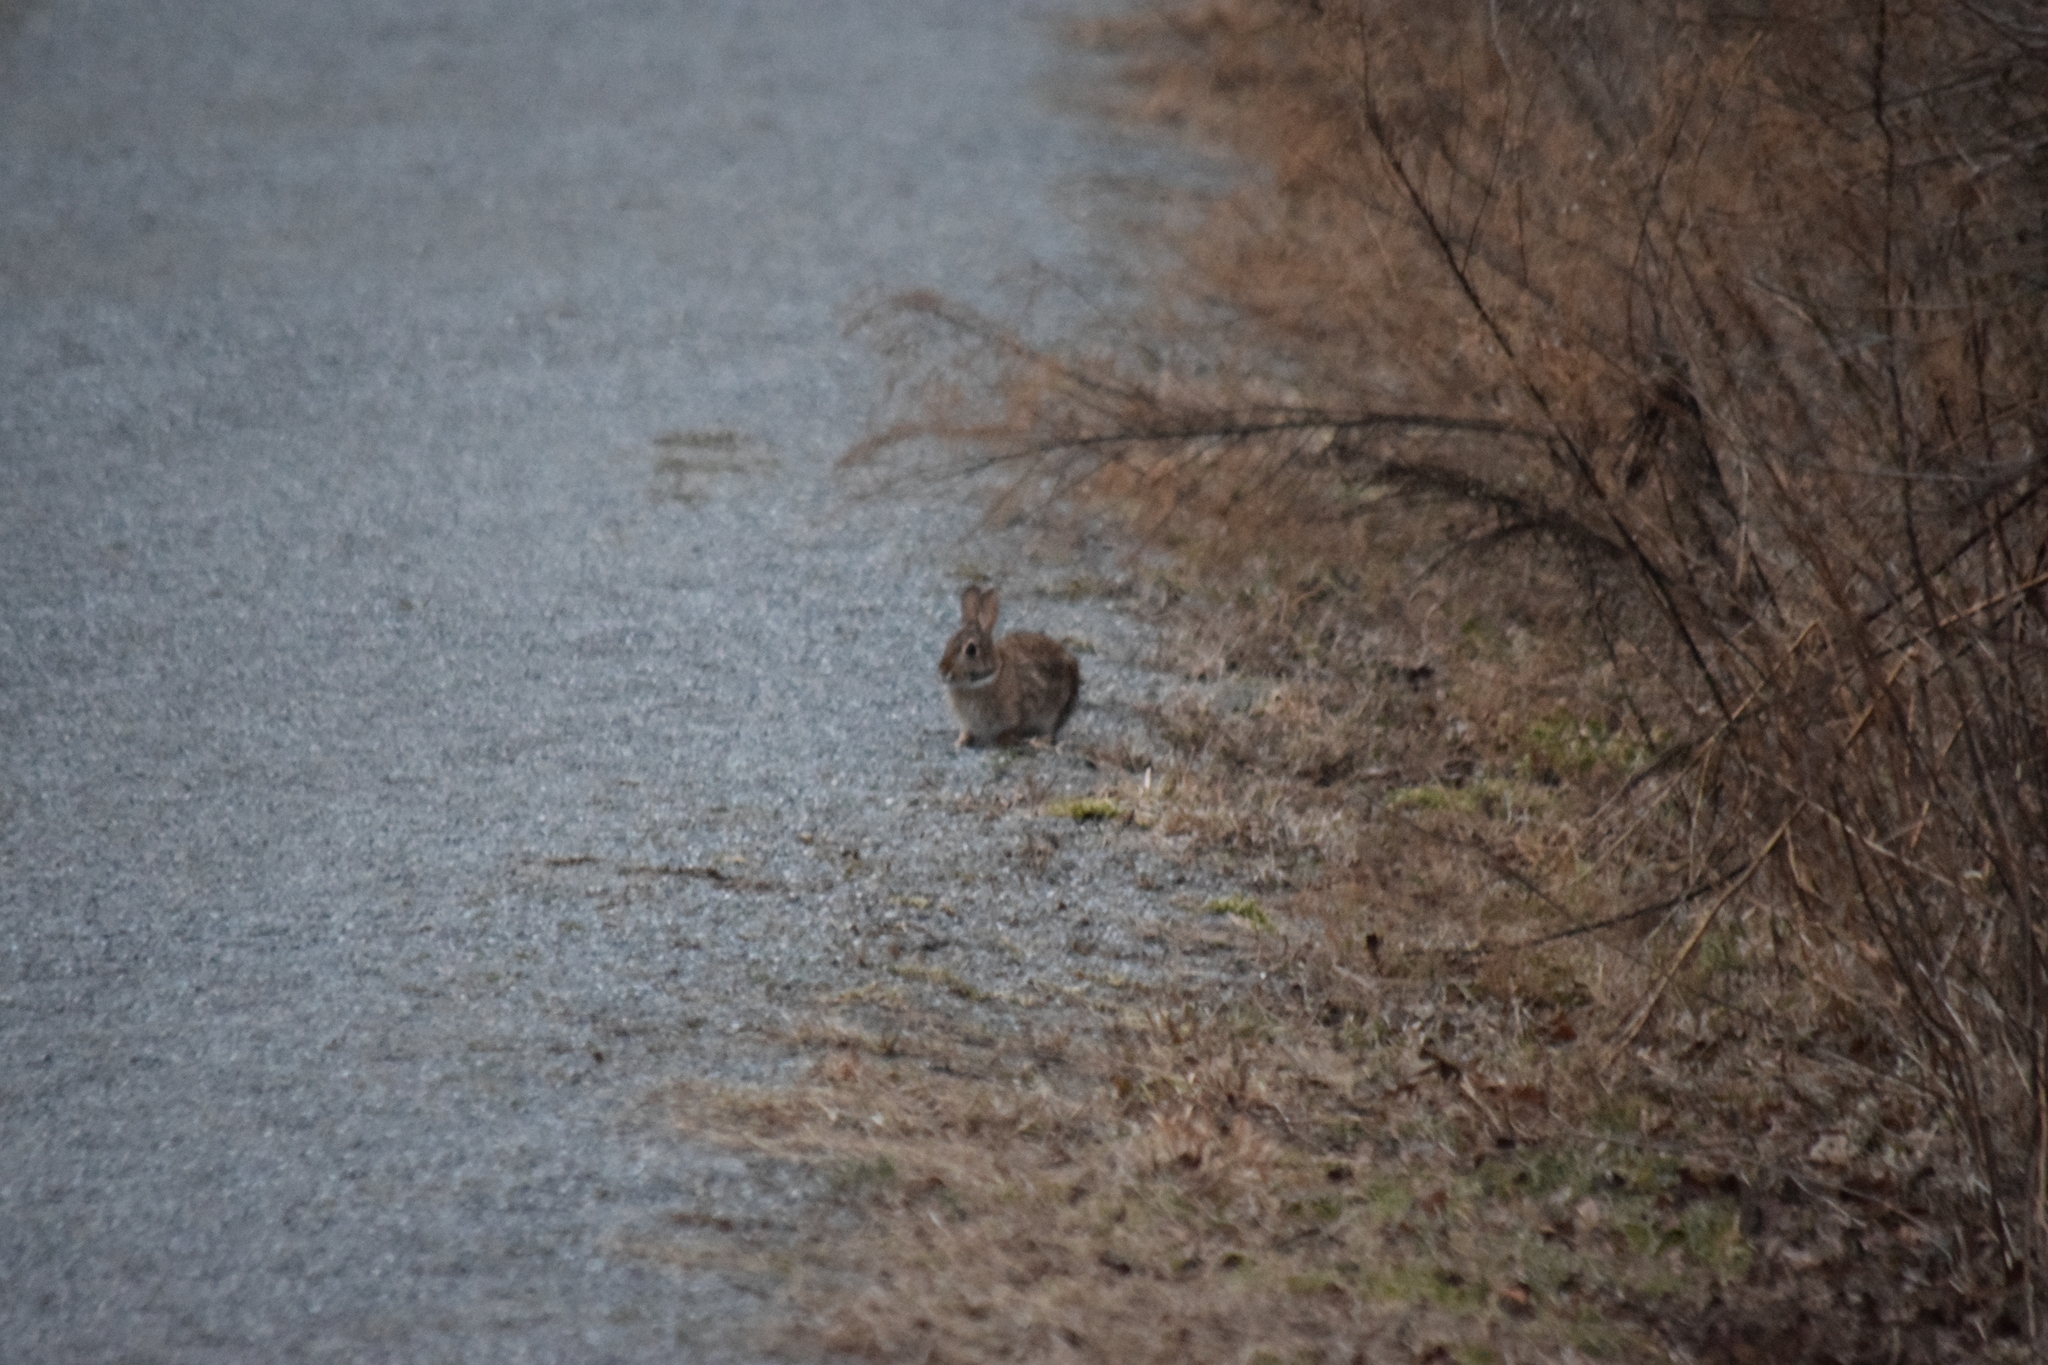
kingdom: Animalia
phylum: Chordata
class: Mammalia
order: Lagomorpha
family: Leporidae
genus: Sylvilagus
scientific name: Sylvilagus floridanus
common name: Eastern cottontail
